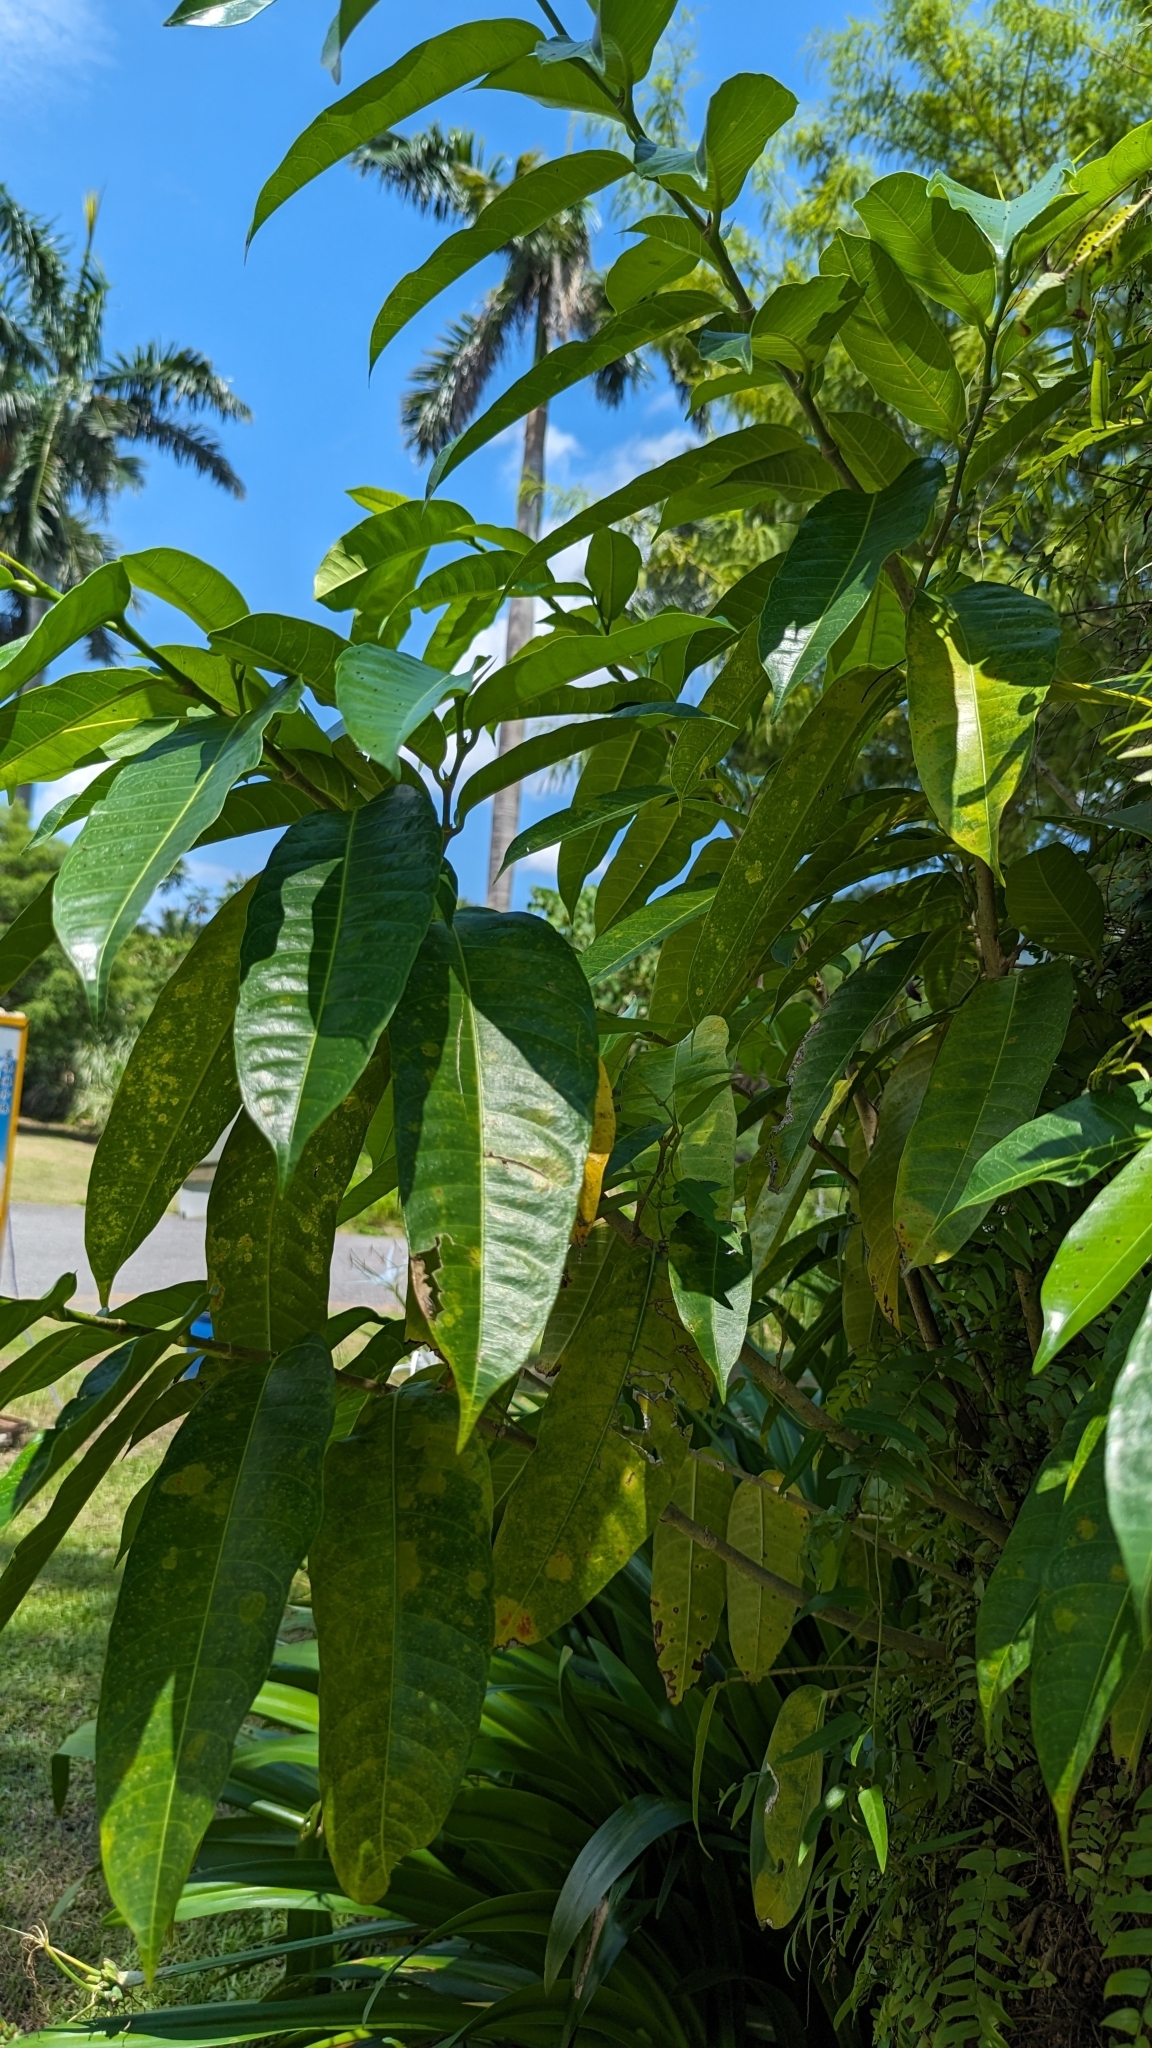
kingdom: Plantae
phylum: Tracheophyta
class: Magnoliopsida
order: Rosales
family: Moraceae
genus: Ficus
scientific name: Ficus virgata
